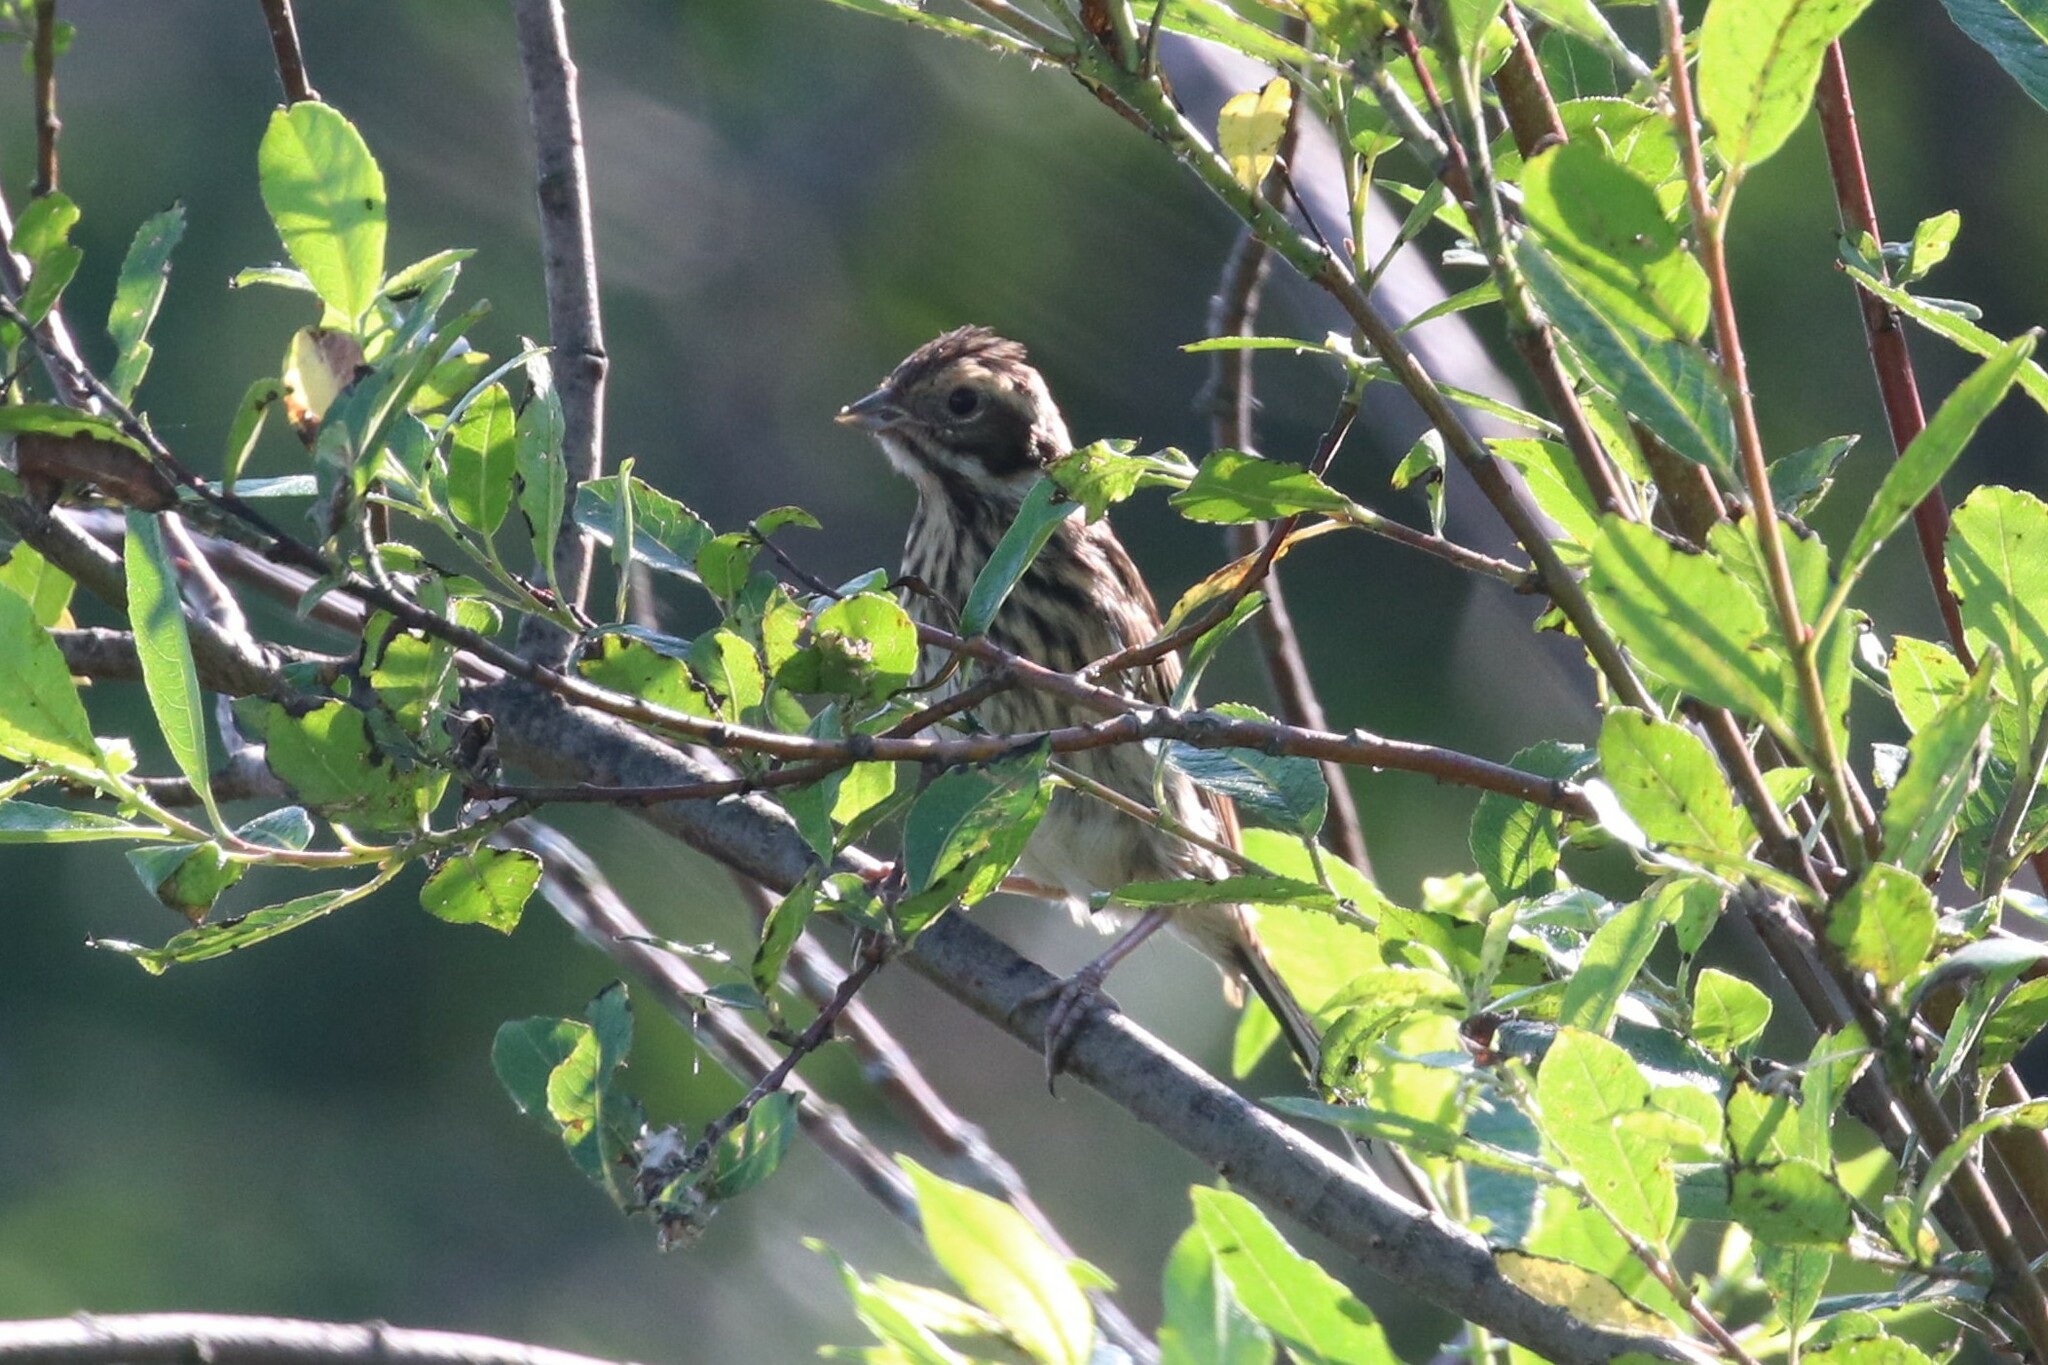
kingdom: Animalia
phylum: Chordata
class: Aves
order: Passeriformes
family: Emberizidae
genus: Emberiza
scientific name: Emberiza schoeniclus
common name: Reed bunting
